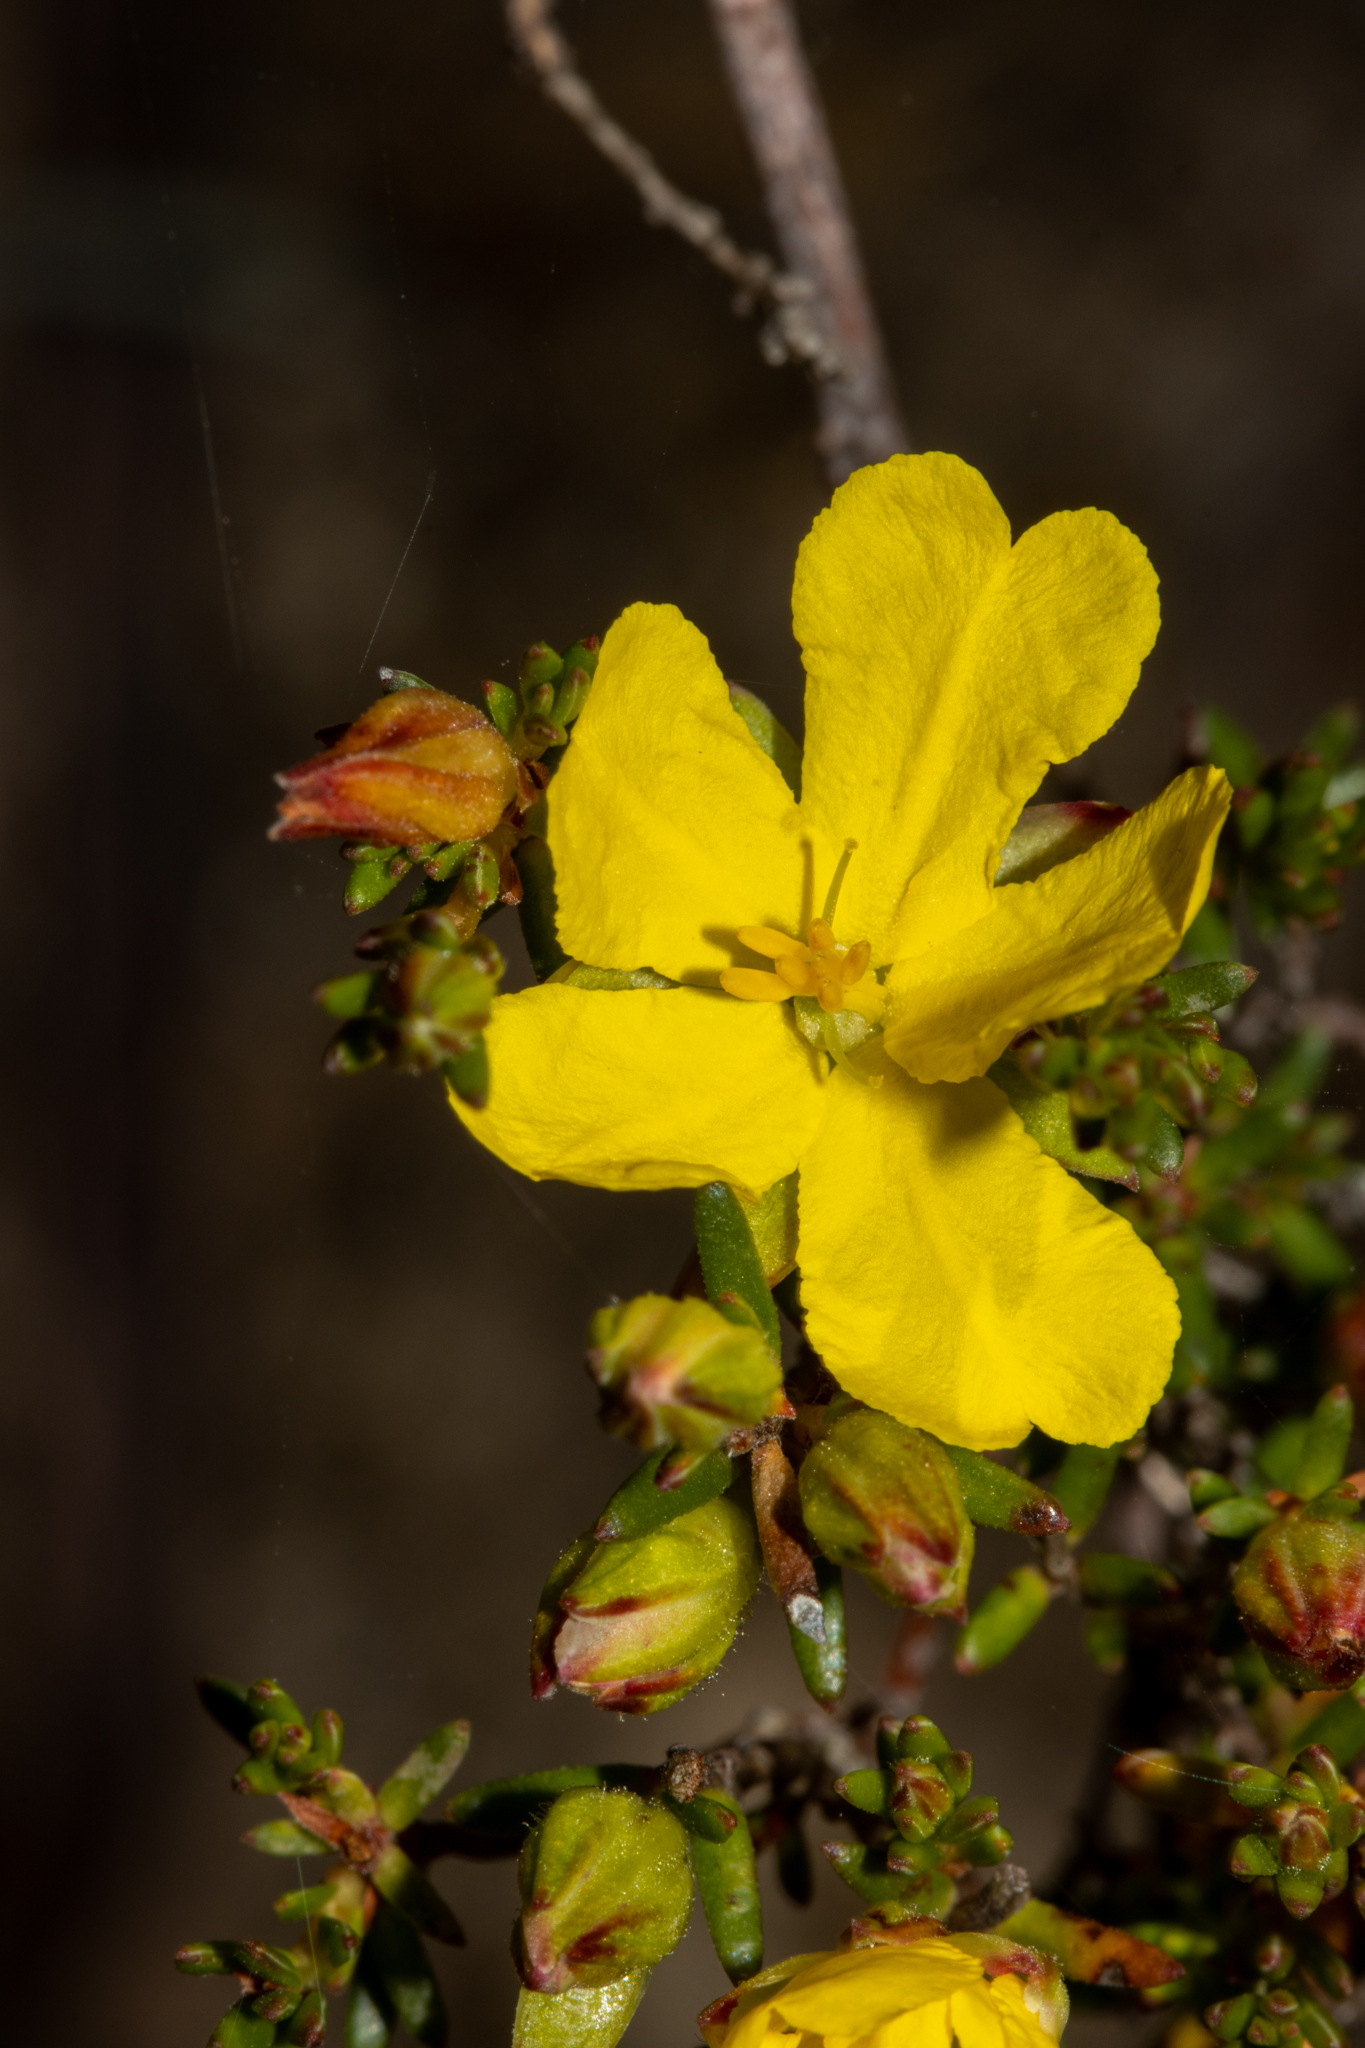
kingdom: Plantae
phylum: Tracheophyta
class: Magnoliopsida
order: Dilleniales
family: Dilleniaceae
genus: Hibbertia
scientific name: Hibbertia devitata
